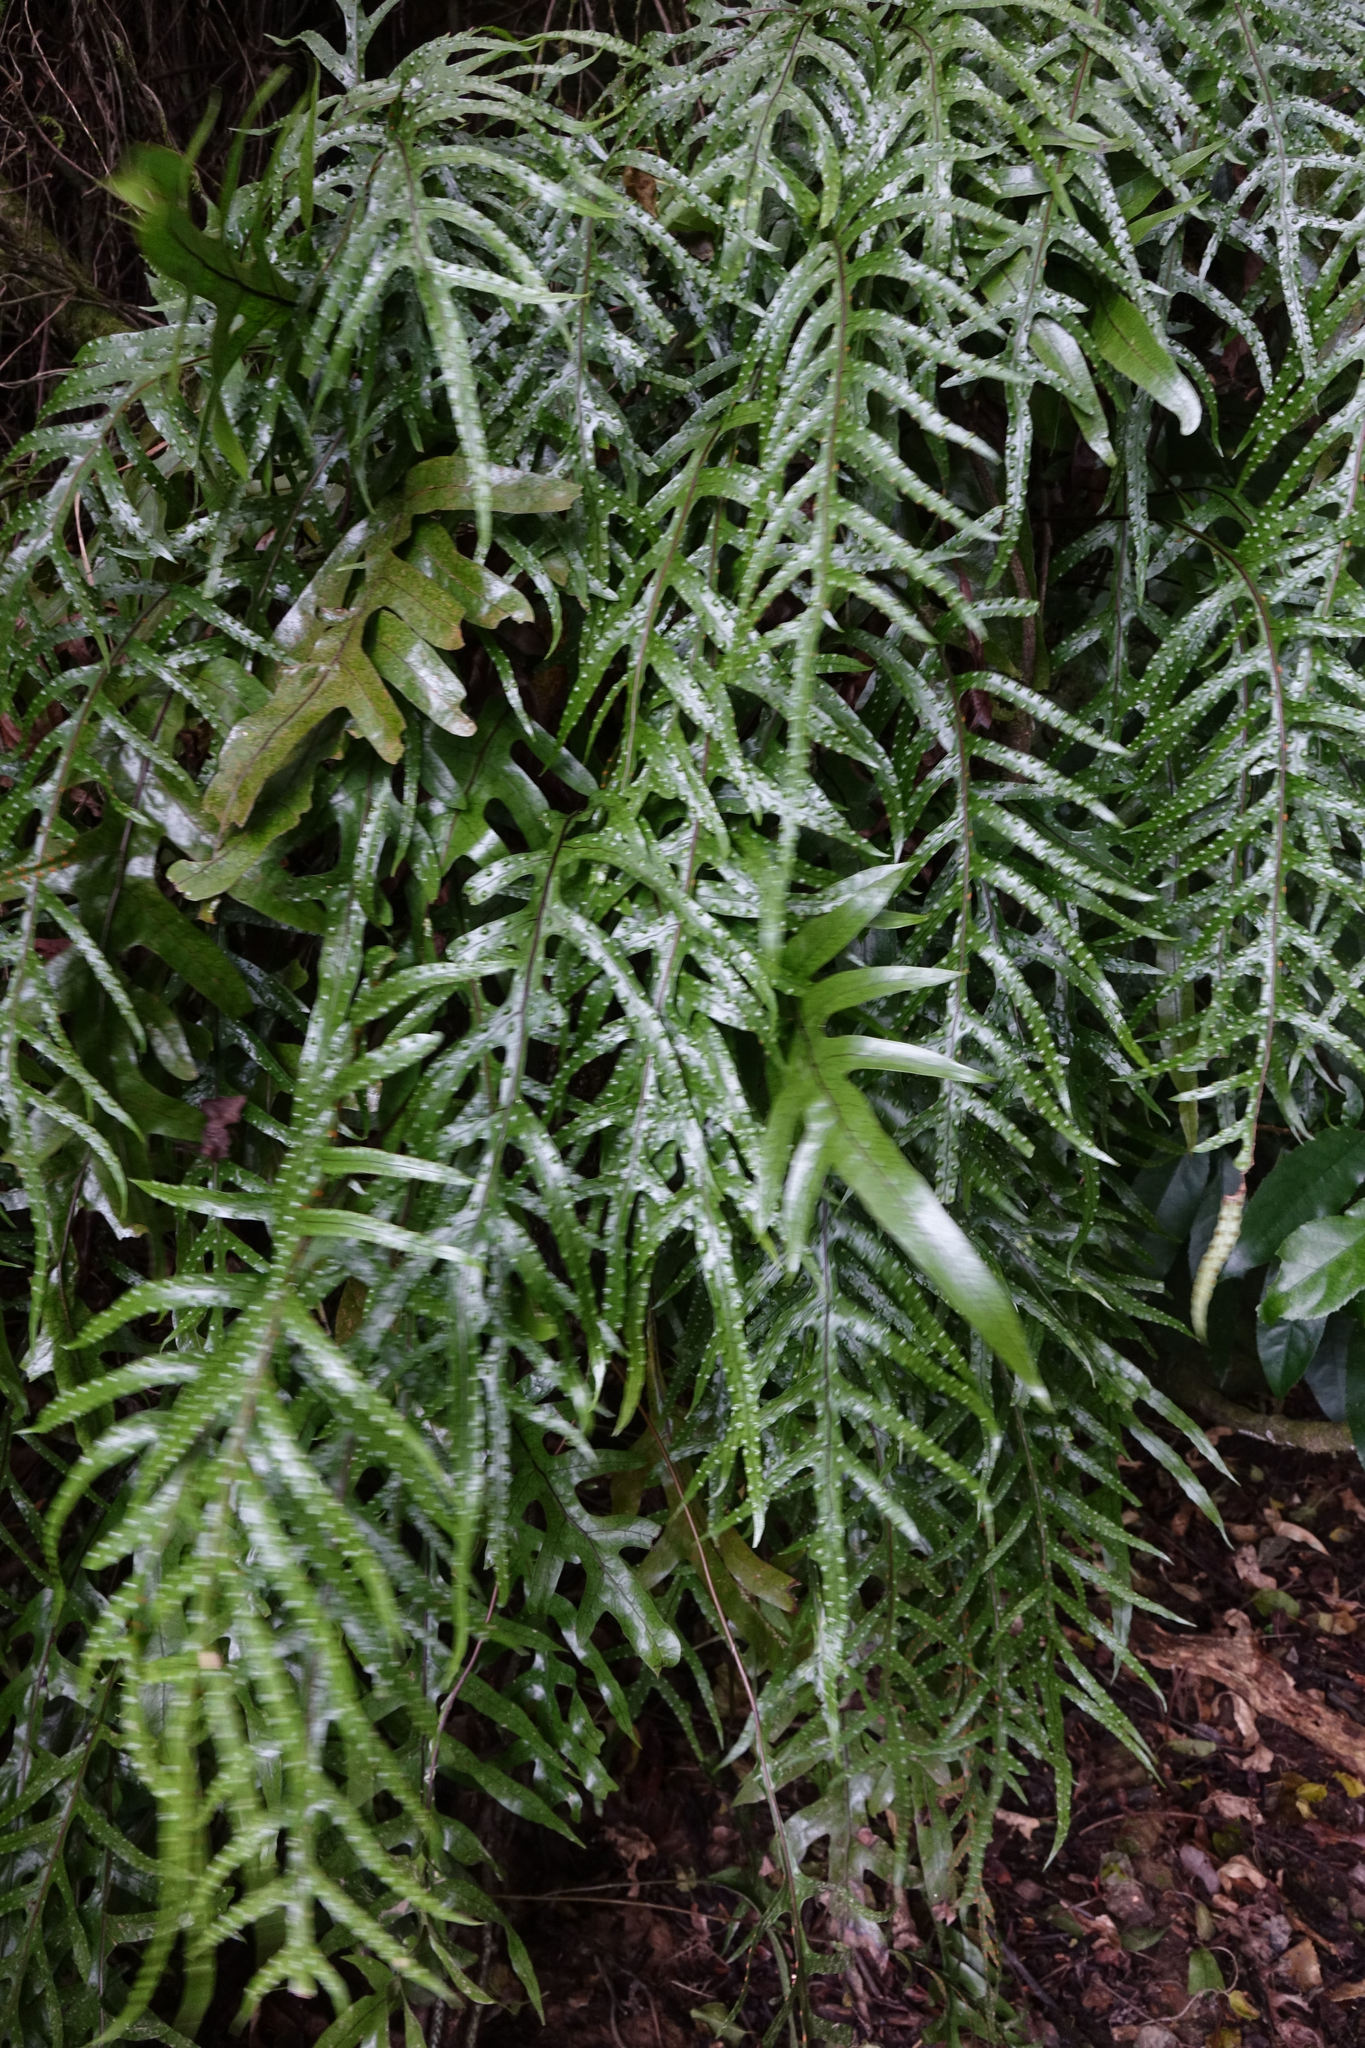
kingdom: Plantae
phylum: Tracheophyta
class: Polypodiopsida
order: Polypodiales
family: Polypodiaceae
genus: Lecanopteris
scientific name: Lecanopteris pustulata
